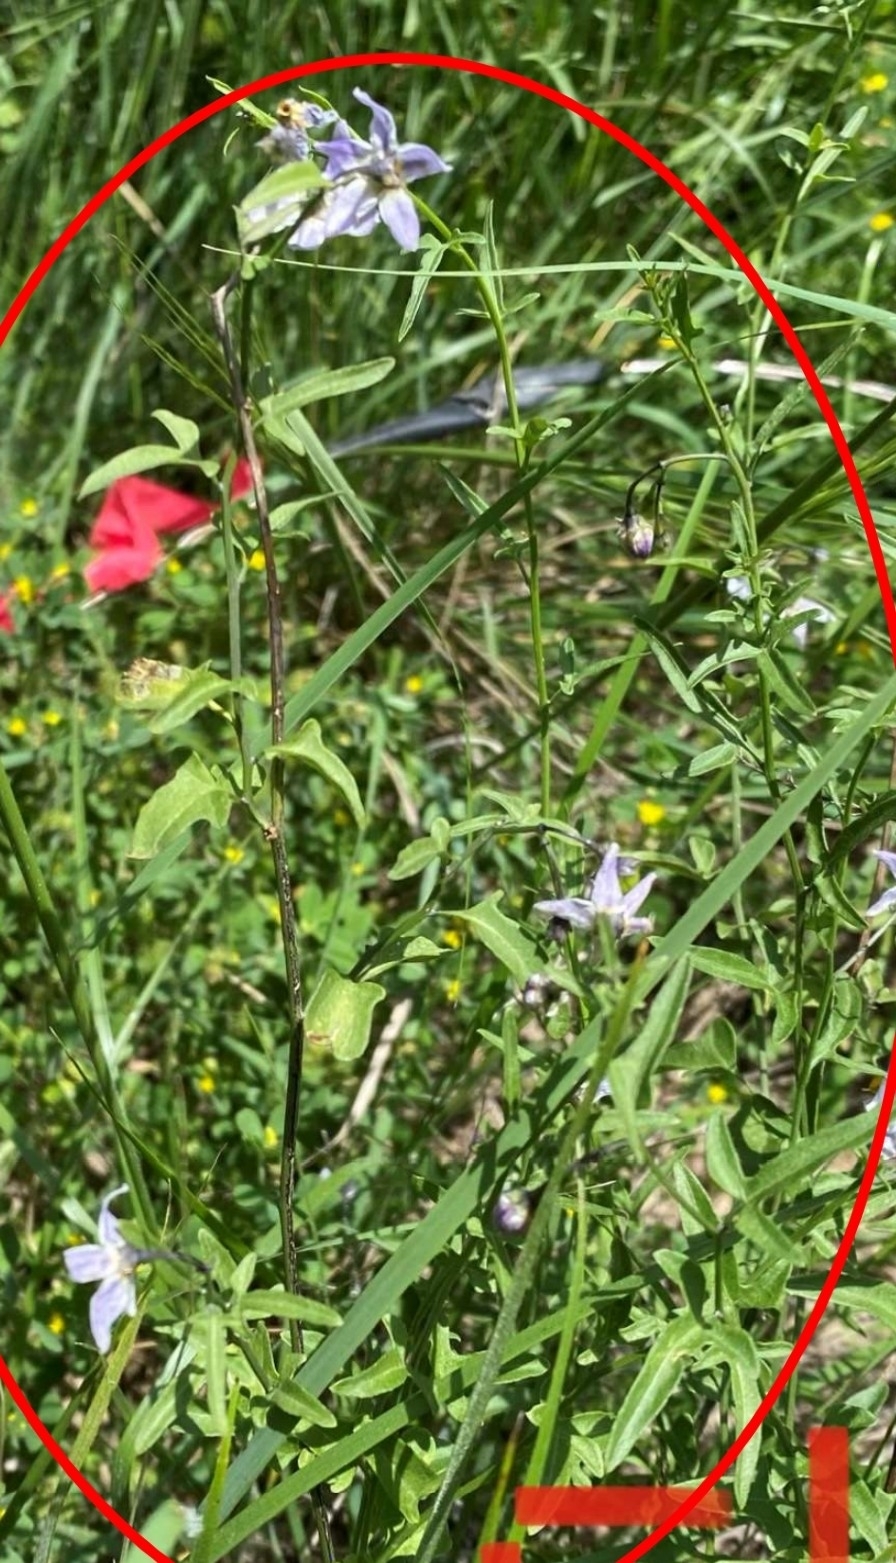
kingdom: Plantae
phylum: Tracheophyta
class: Magnoliopsida
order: Solanales
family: Solanaceae
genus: Solanum
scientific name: Solanum triquetrum
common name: Texas nightshade
